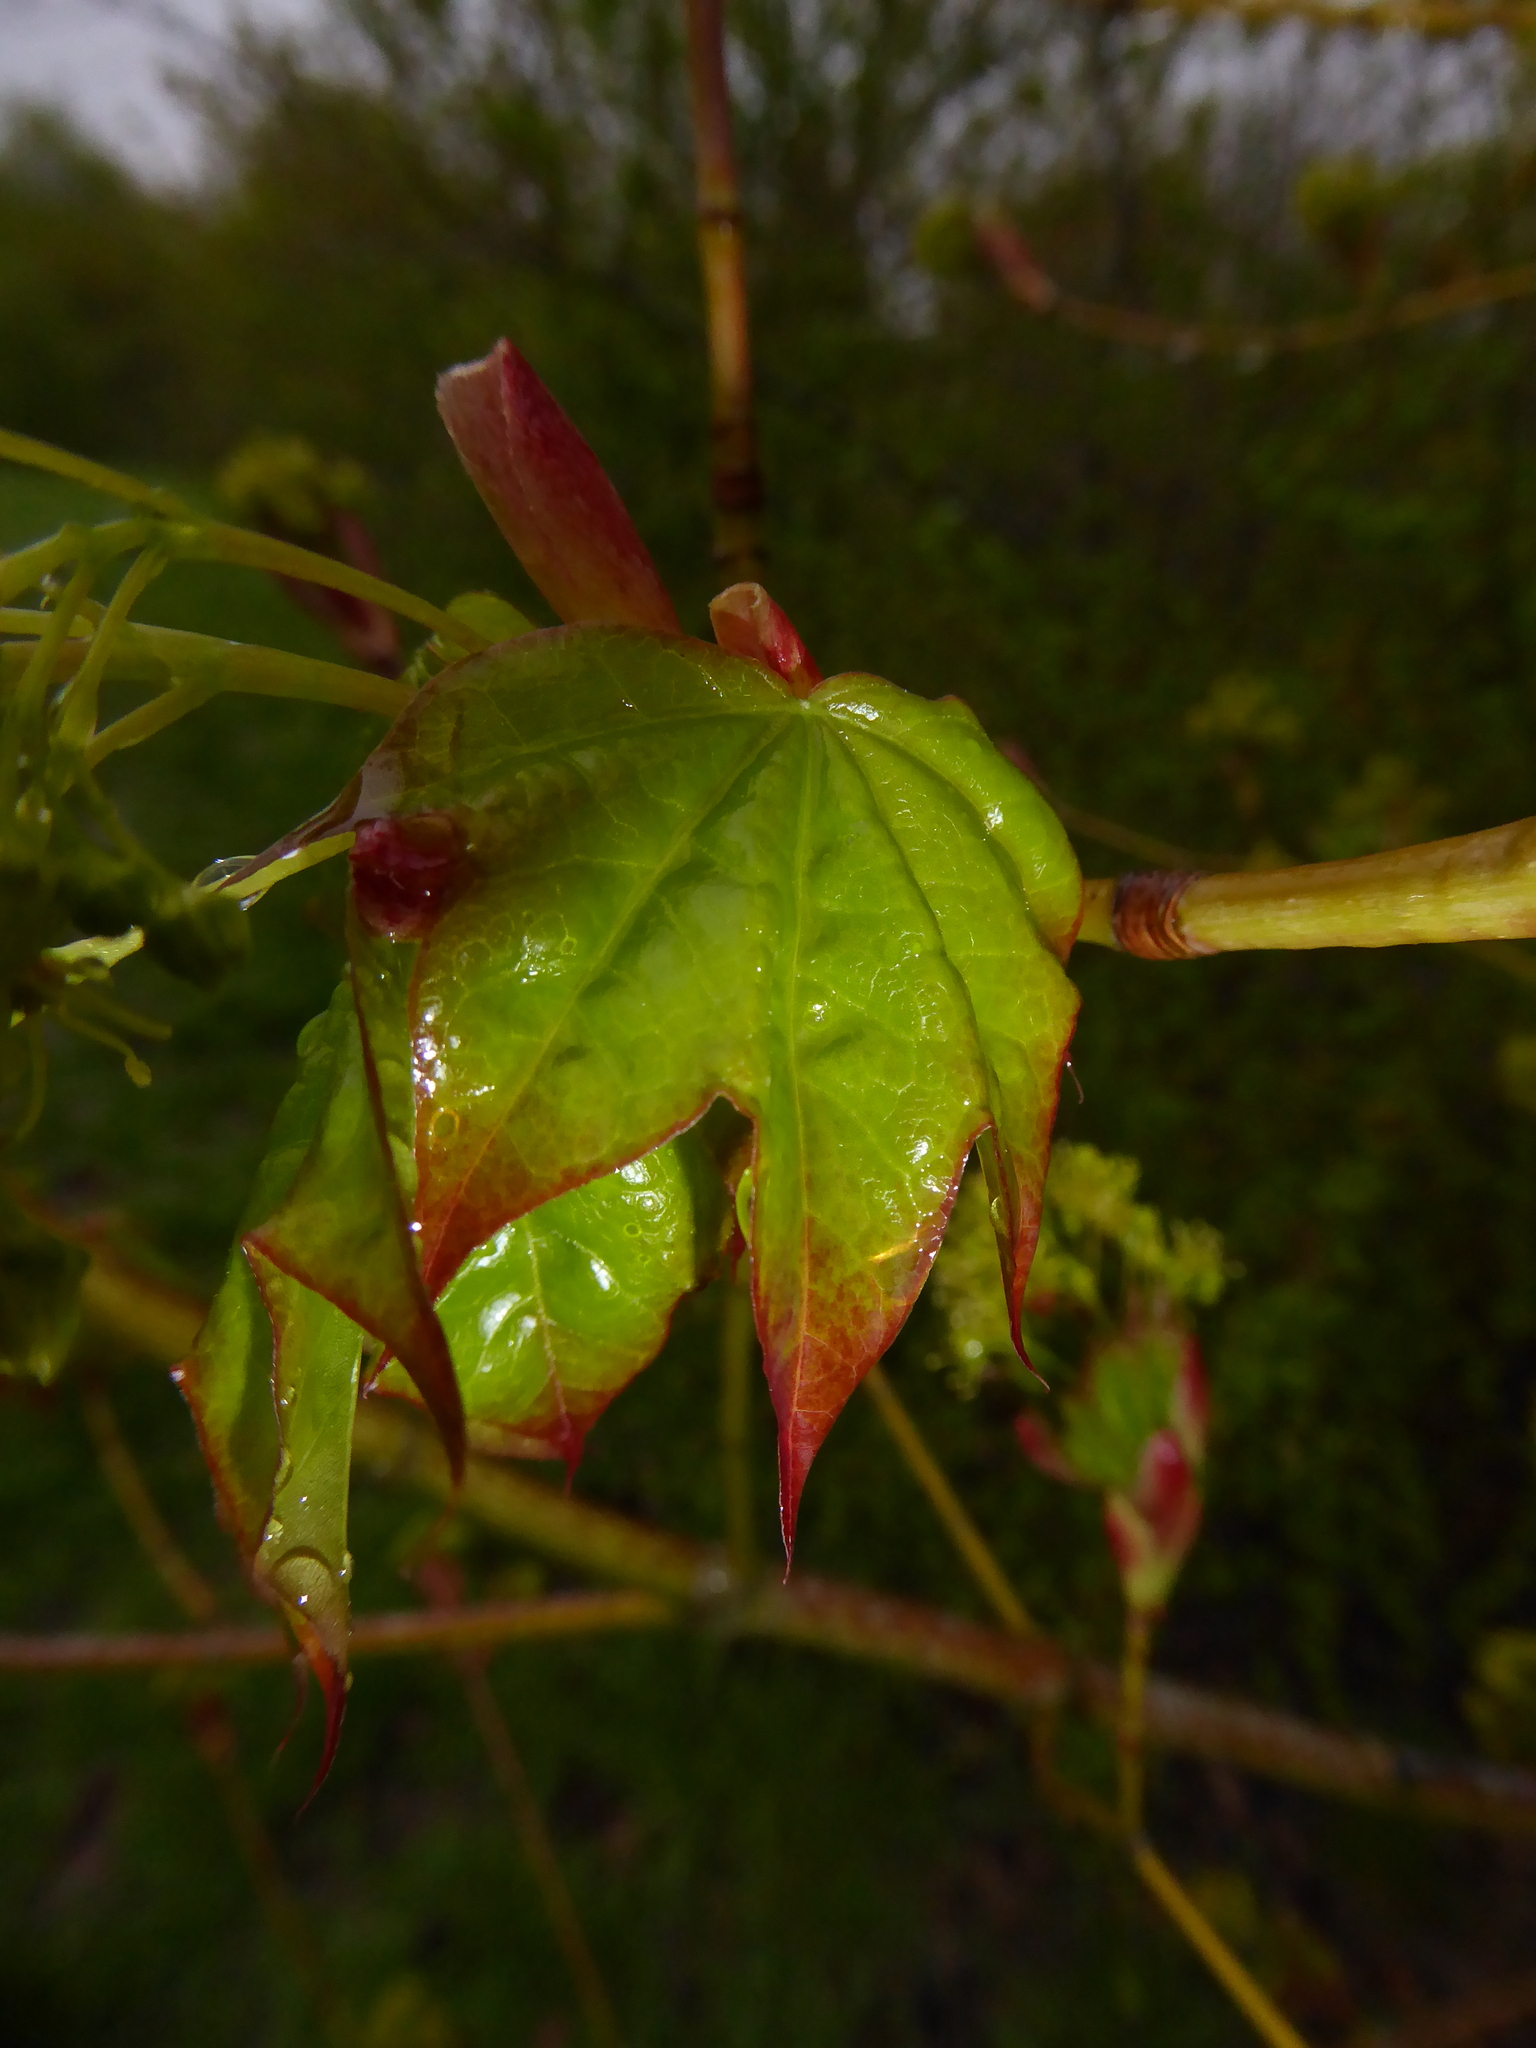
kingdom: Plantae
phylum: Tracheophyta
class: Magnoliopsida
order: Sapindales
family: Sapindaceae
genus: Acer
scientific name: Acer cappadocicum
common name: Cappadocian maple
